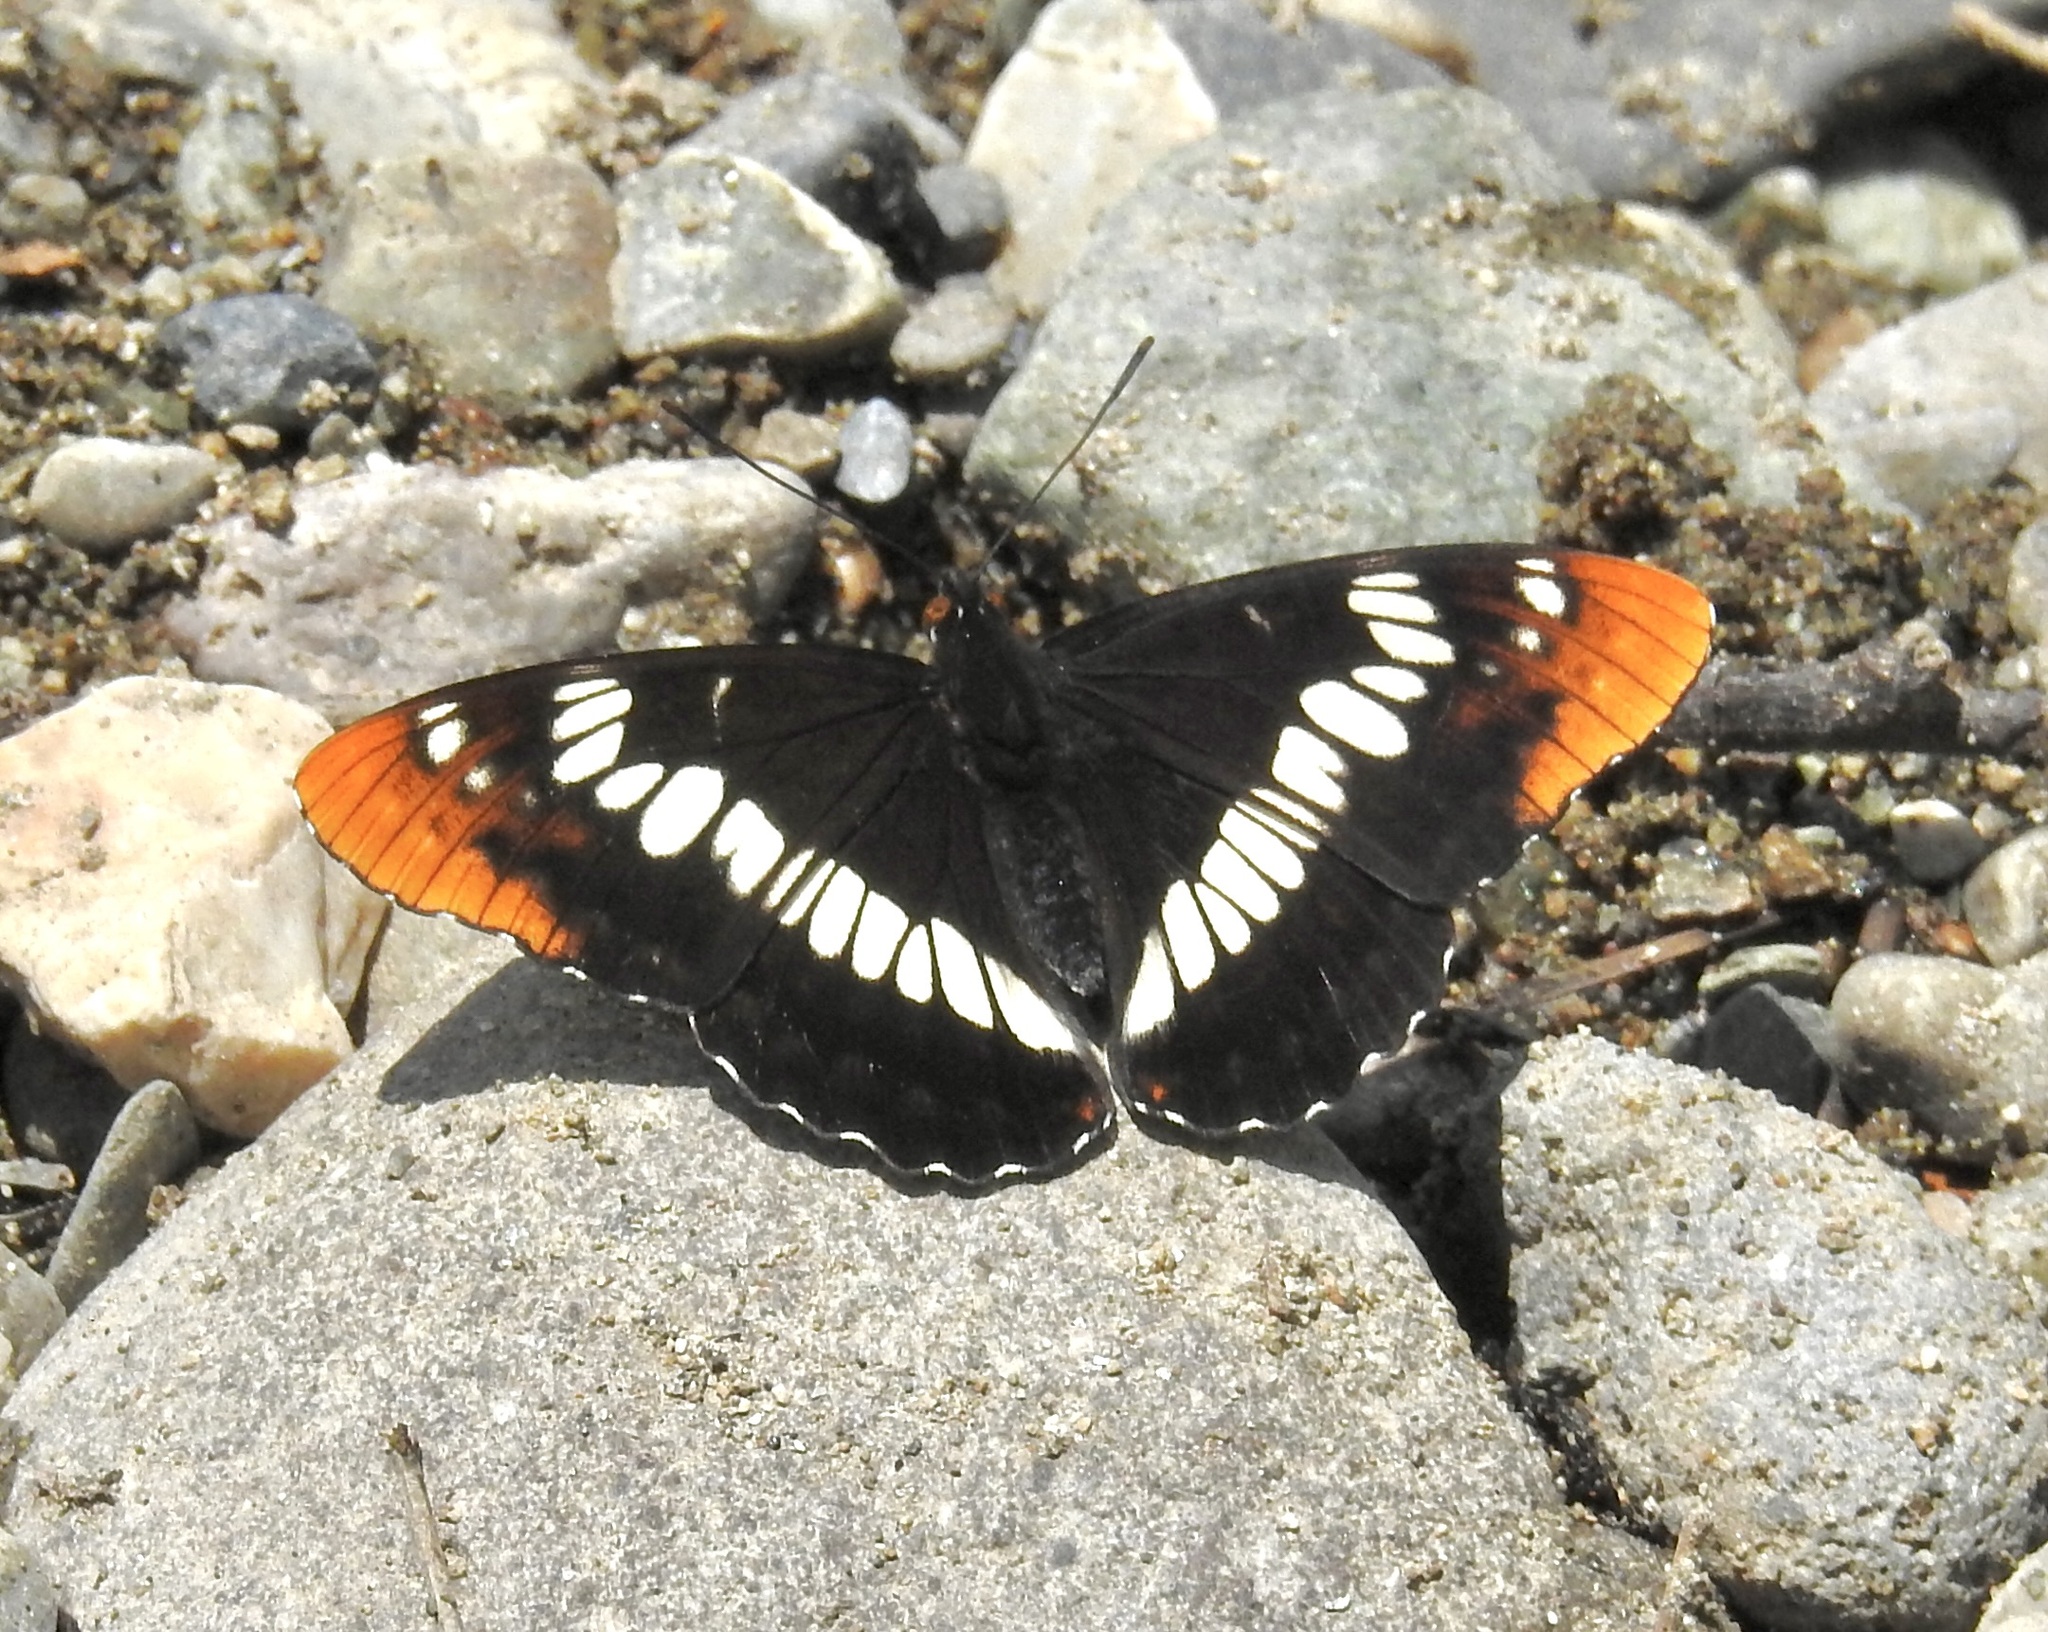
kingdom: Animalia
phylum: Arthropoda
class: Insecta
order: Lepidoptera
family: Nymphalidae
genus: Limenitis
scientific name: Limenitis lorquini
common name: Lorquin's admiral
